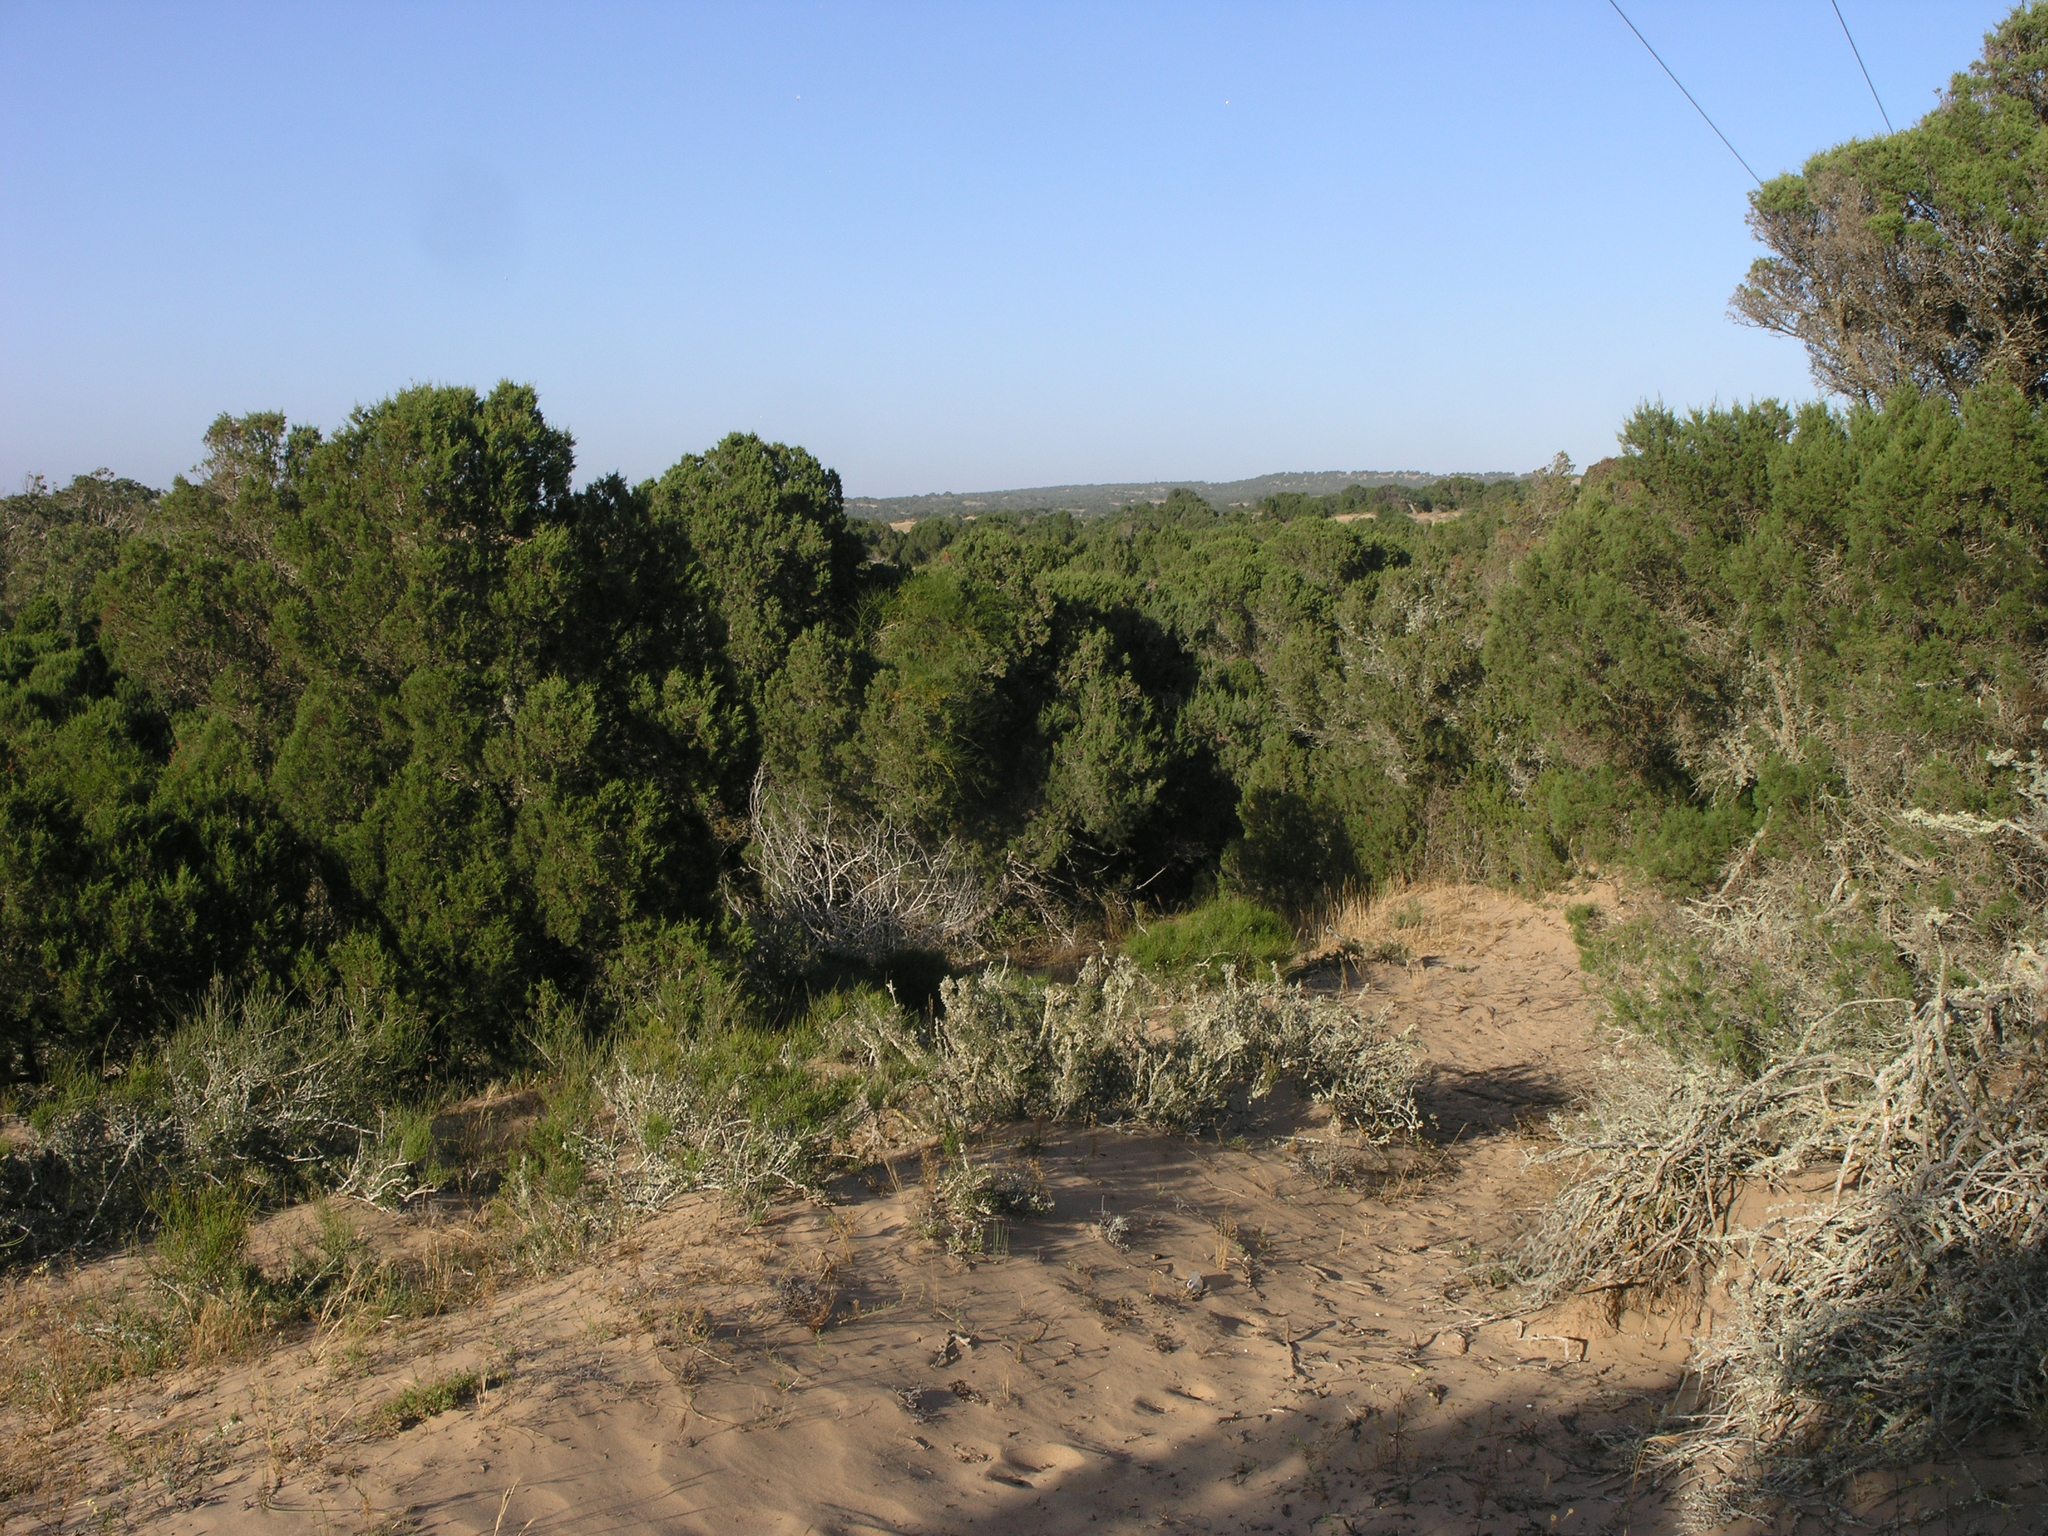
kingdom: Plantae
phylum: Tracheophyta
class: Pinopsida
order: Pinales
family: Cupressaceae
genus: Juniperus
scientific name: Juniperus phoenicea
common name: Phoenician juniper
